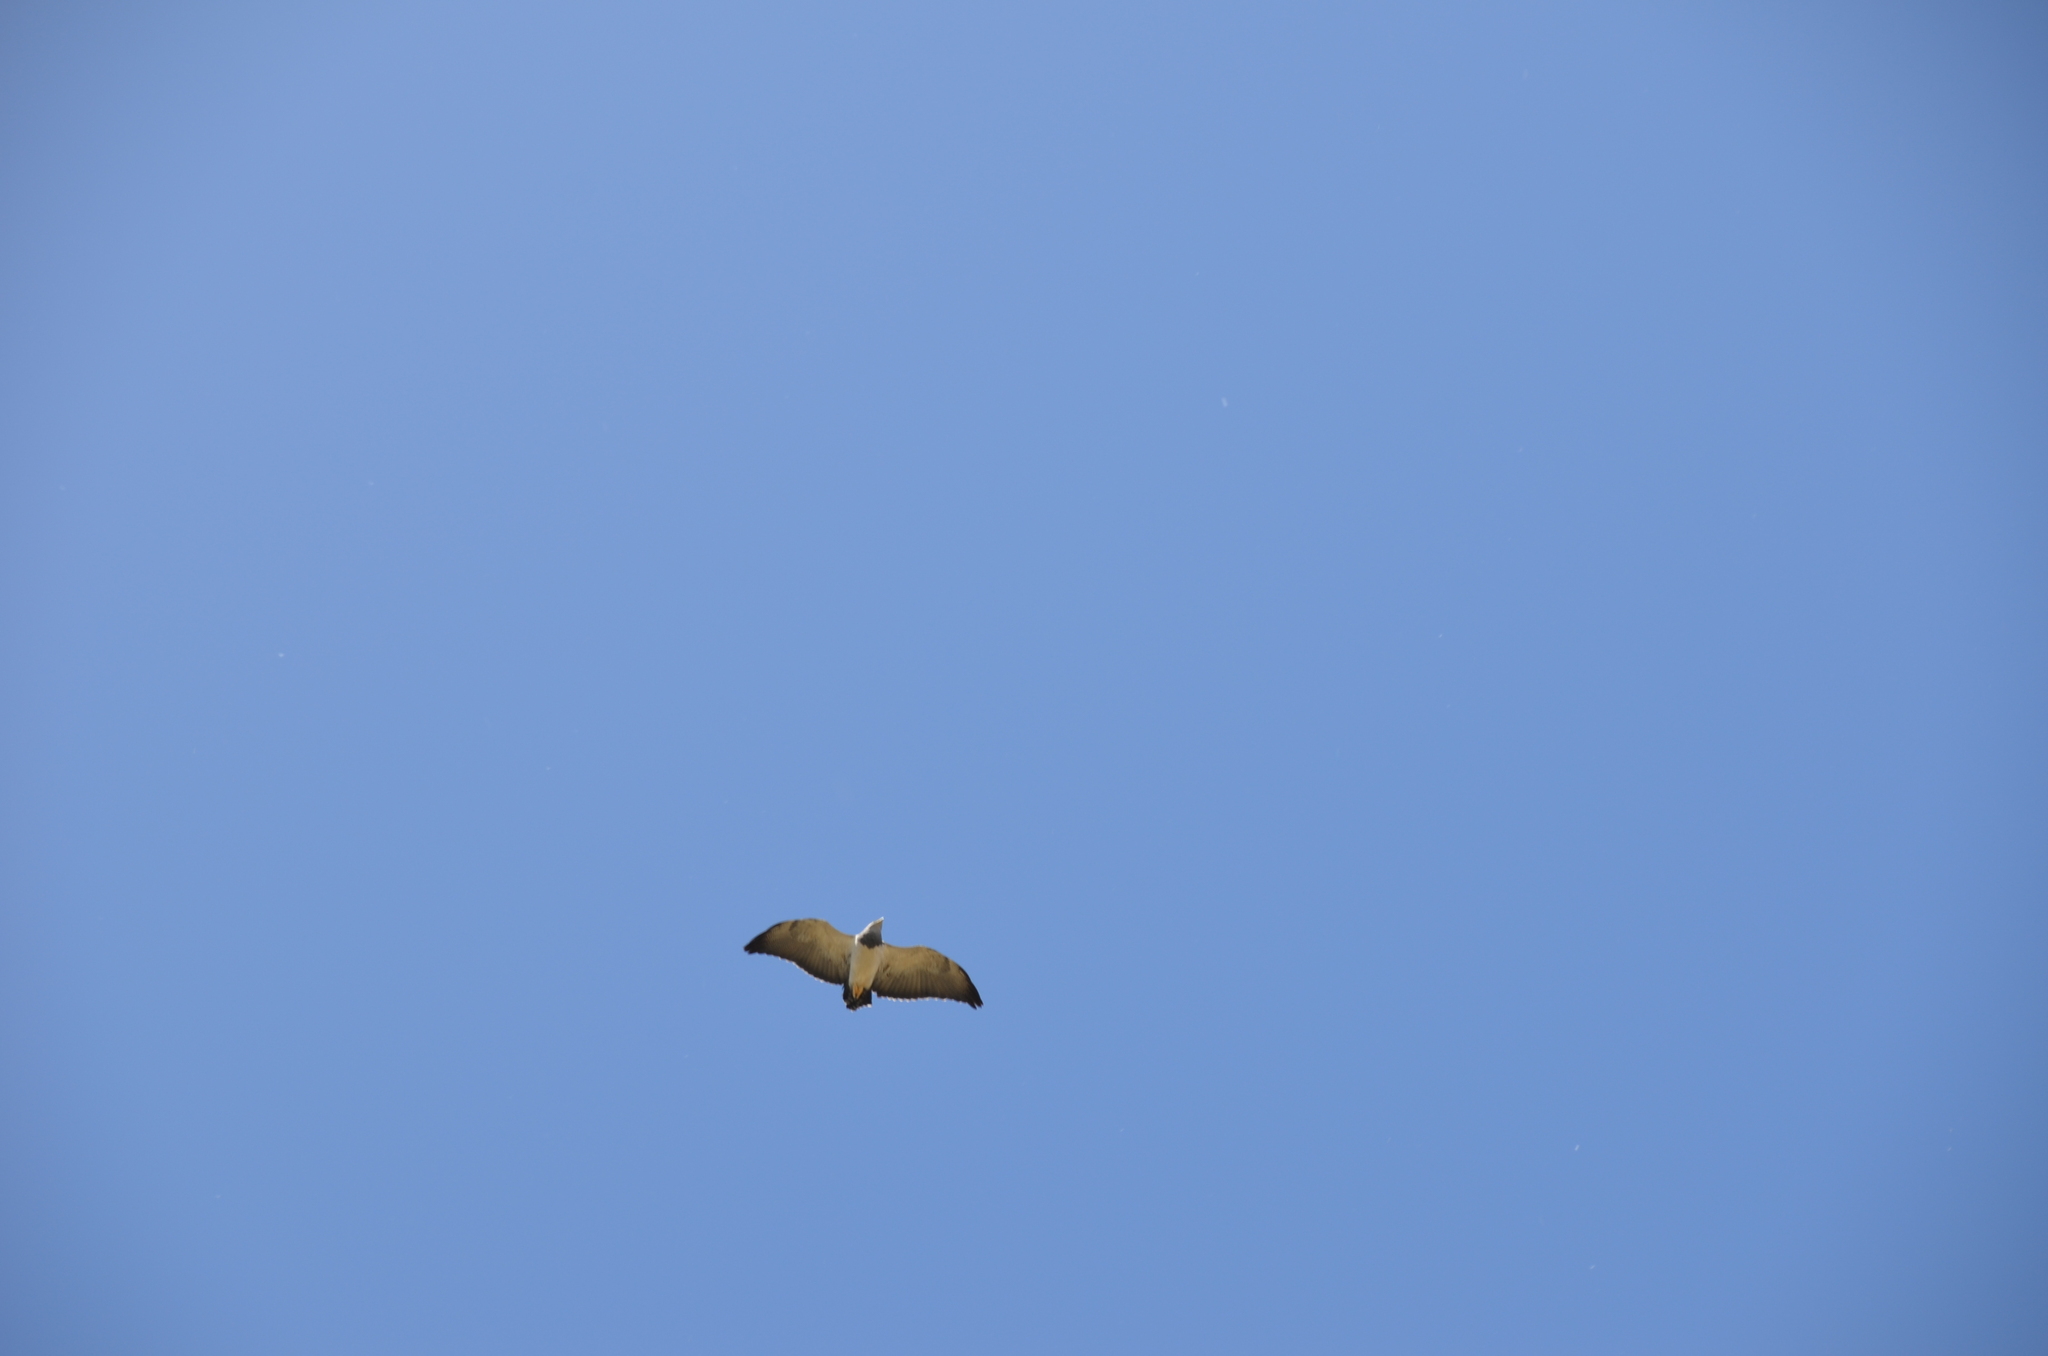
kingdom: Animalia
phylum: Chordata
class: Aves
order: Accipitriformes
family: Accipitridae
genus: Geranoaetus
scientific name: Geranoaetus melanoleucus
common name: Black-chested buzzard-eagle
